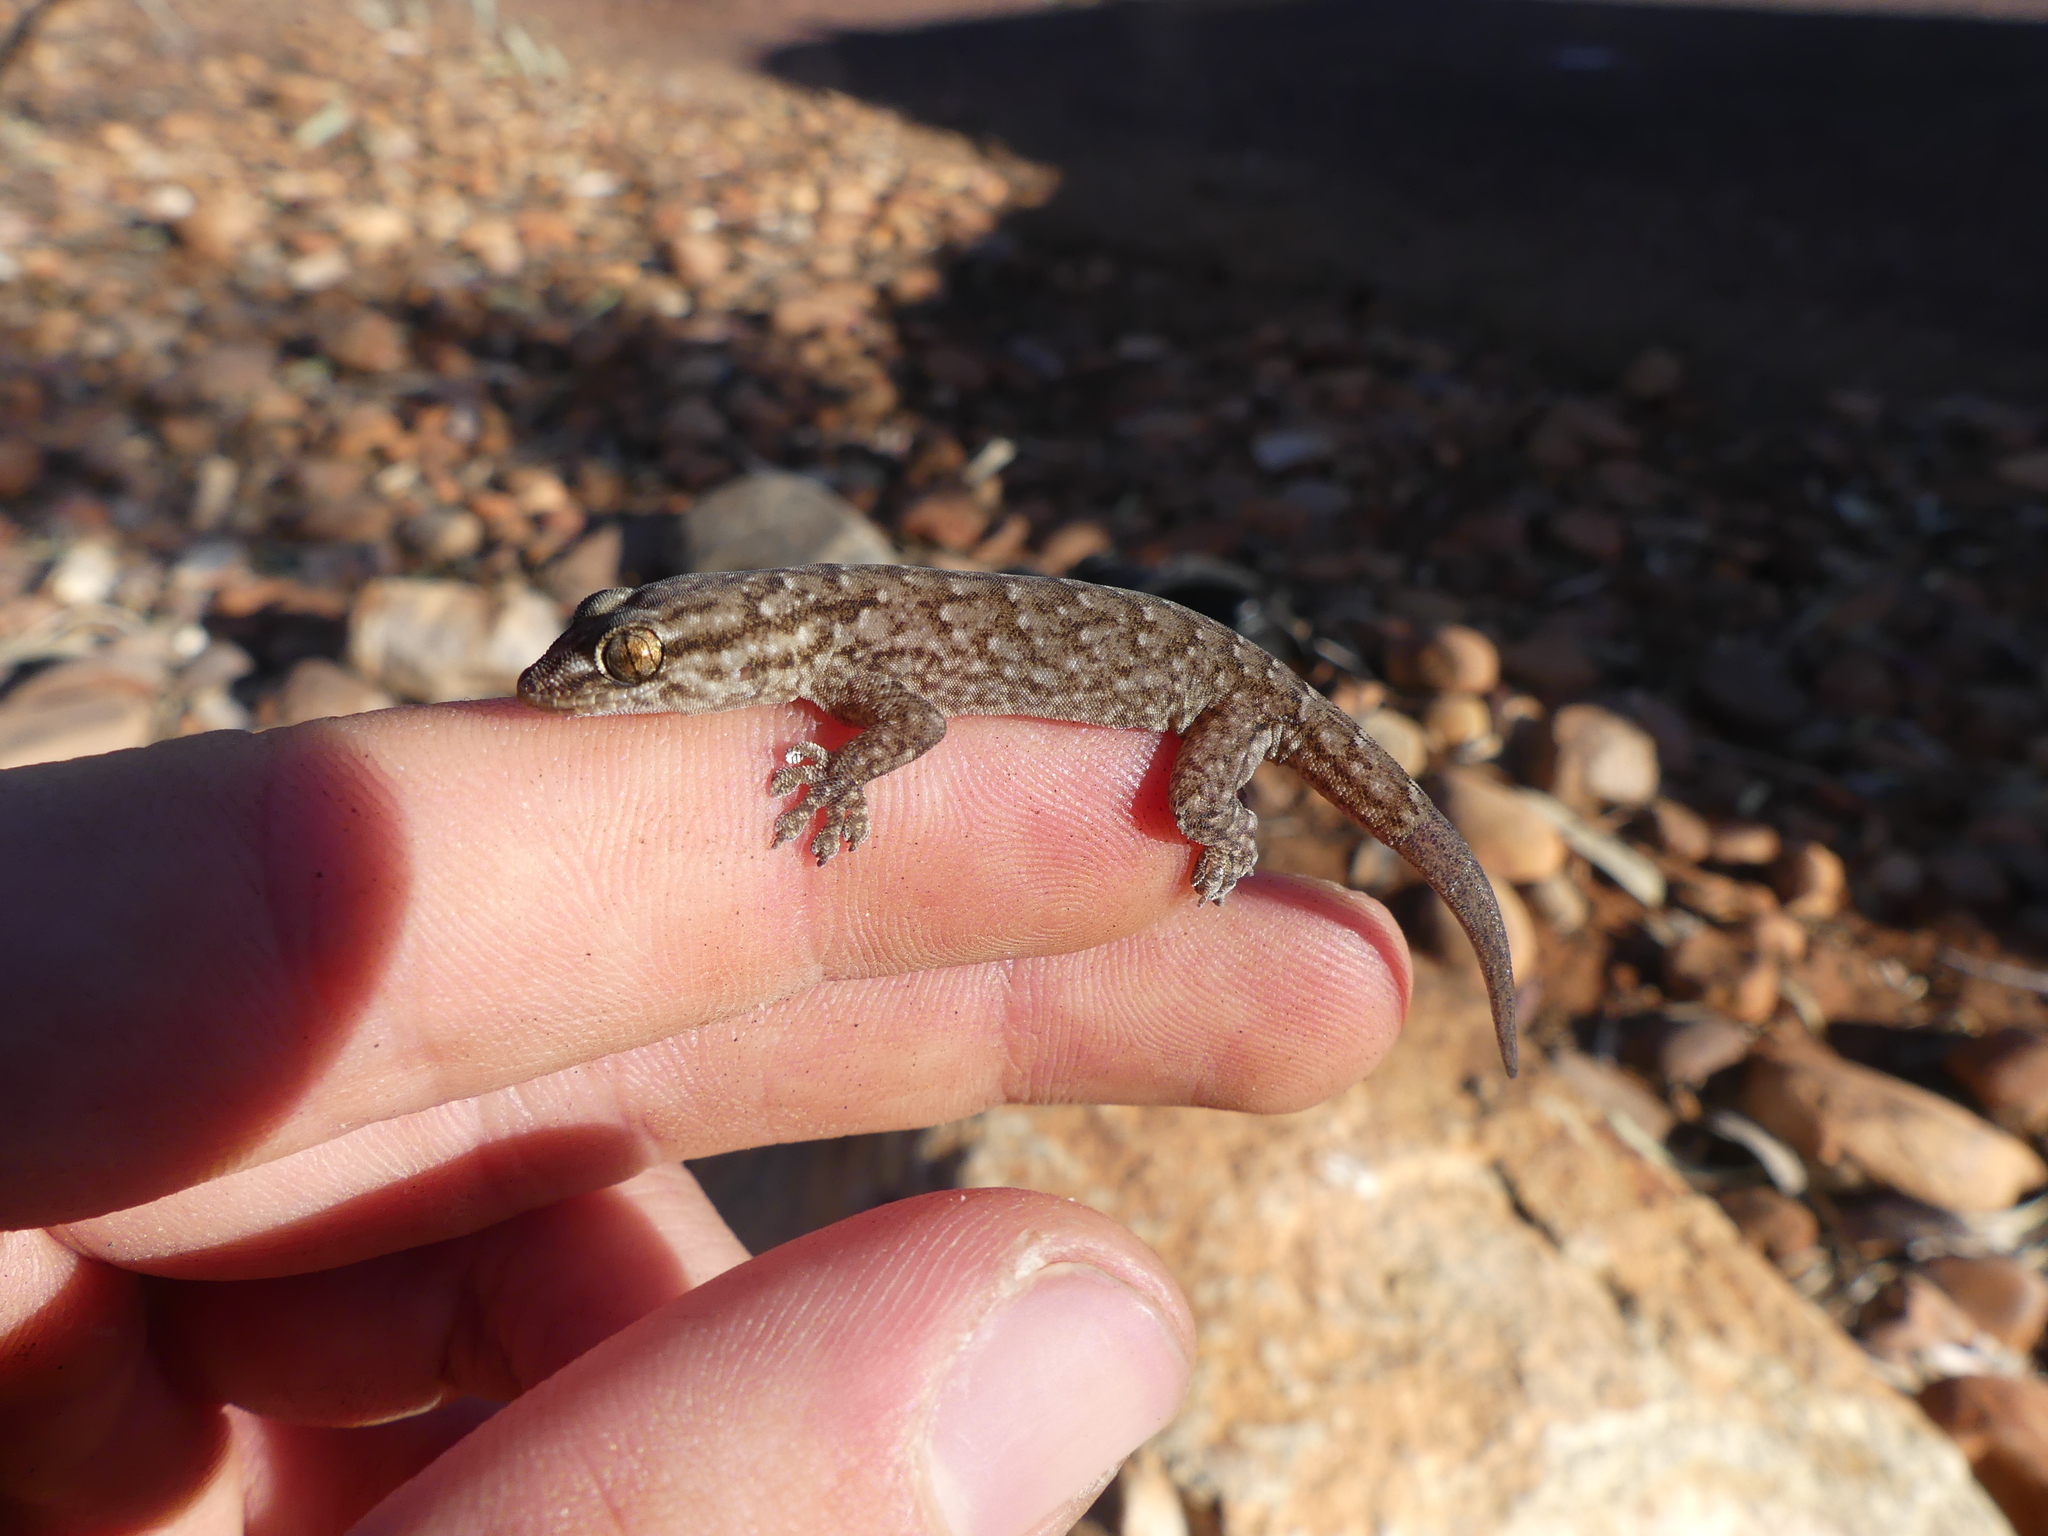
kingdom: Animalia
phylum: Chordata
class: Squamata
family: Gekkonidae
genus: Gehyra
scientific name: Gehyra versicolor
